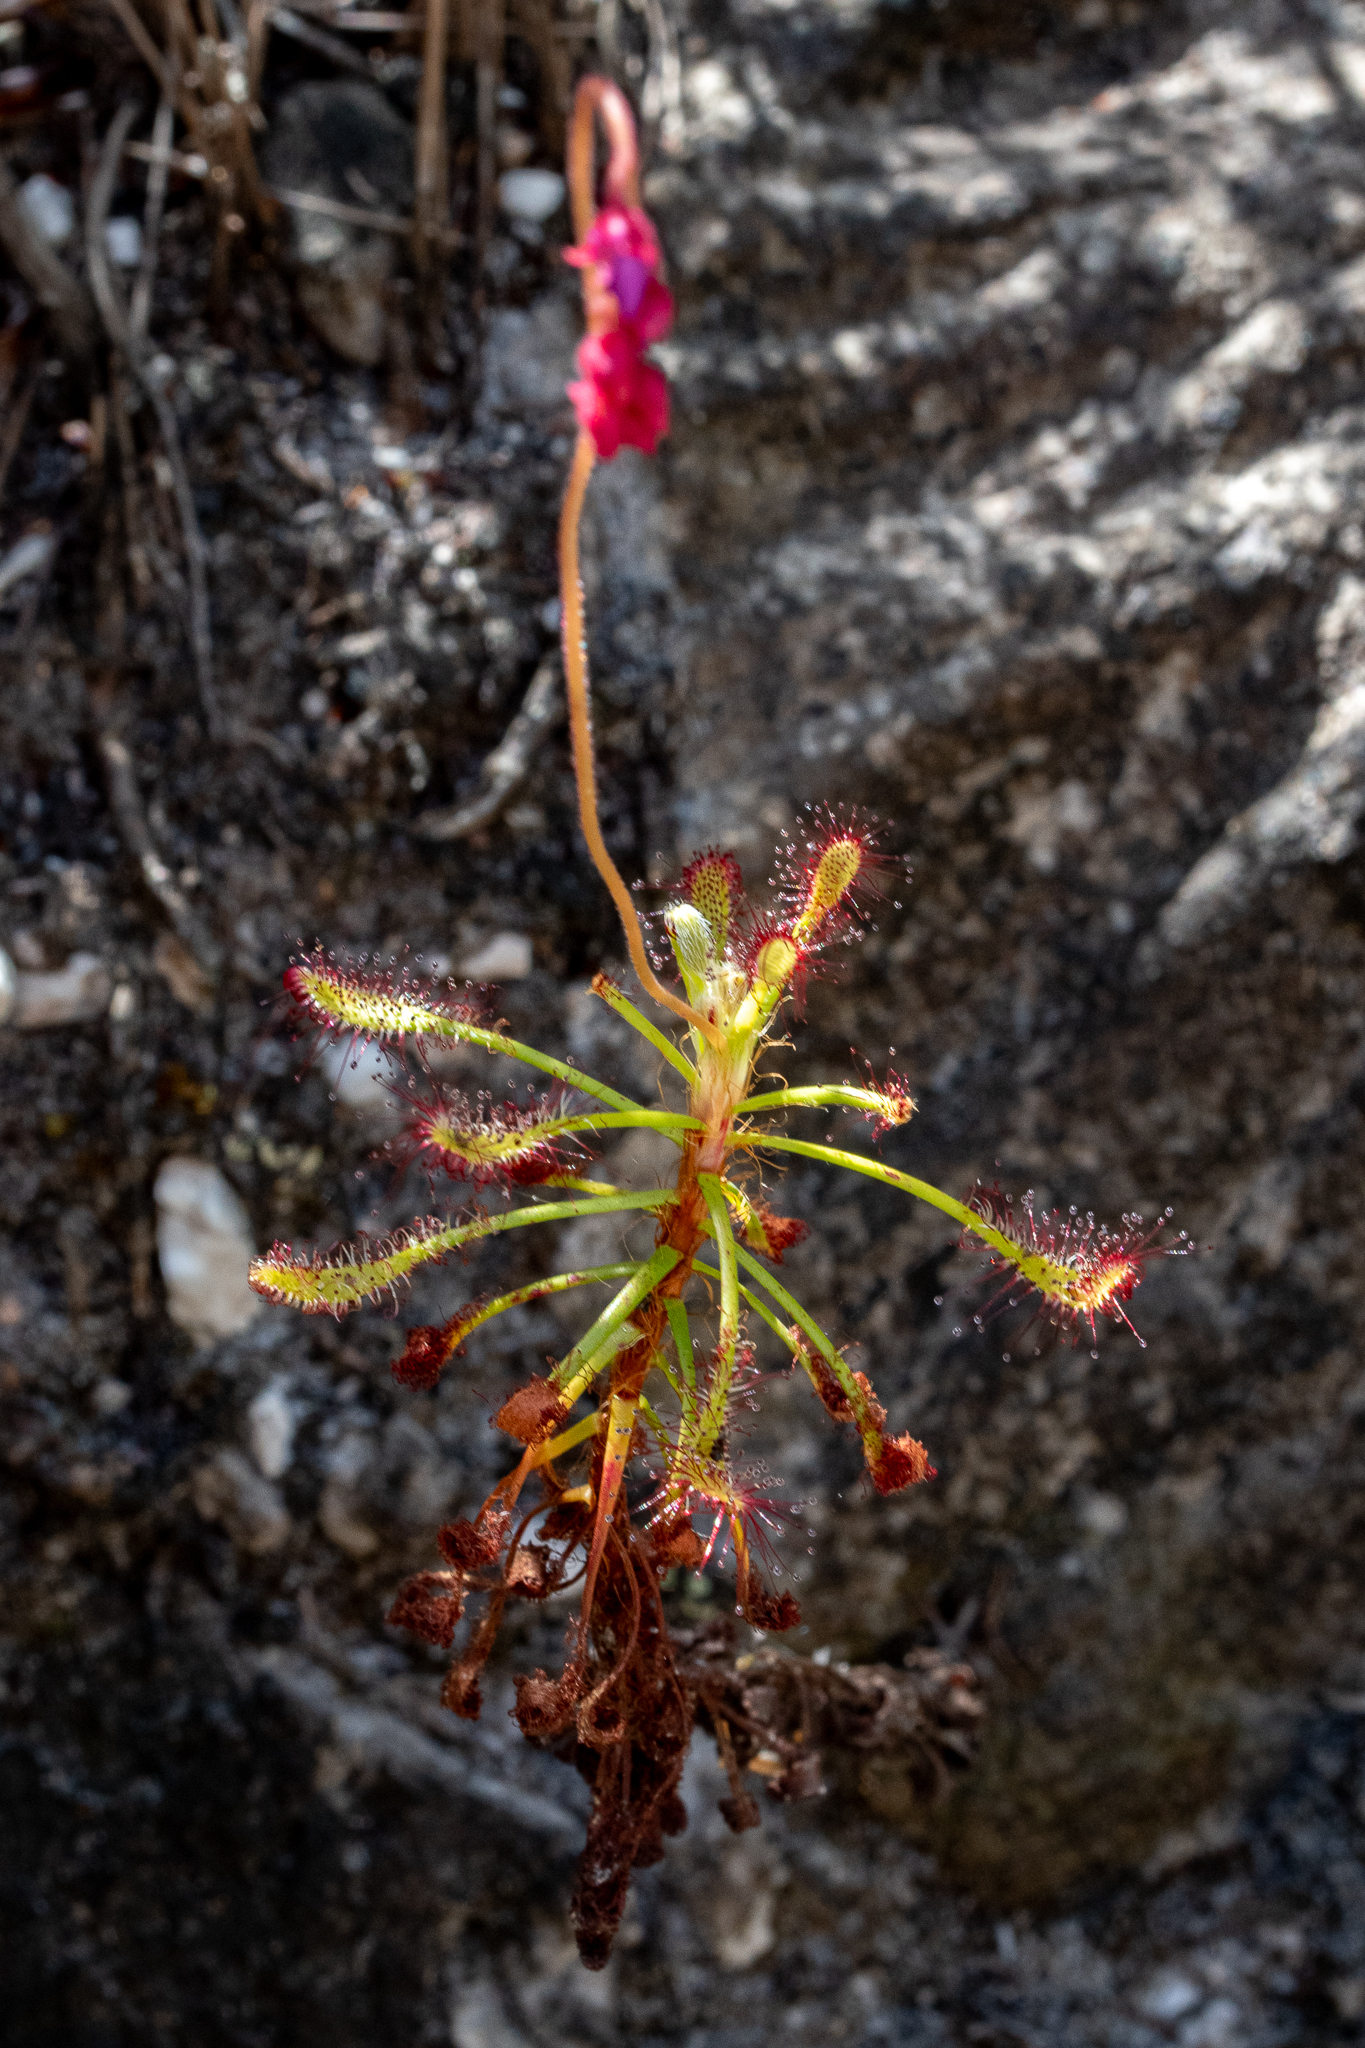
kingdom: Plantae
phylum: Tracheophyta
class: Magnoliopsida
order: Caryophyllales
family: Droseraceae
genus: Drosera
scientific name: Drosera glabripes
